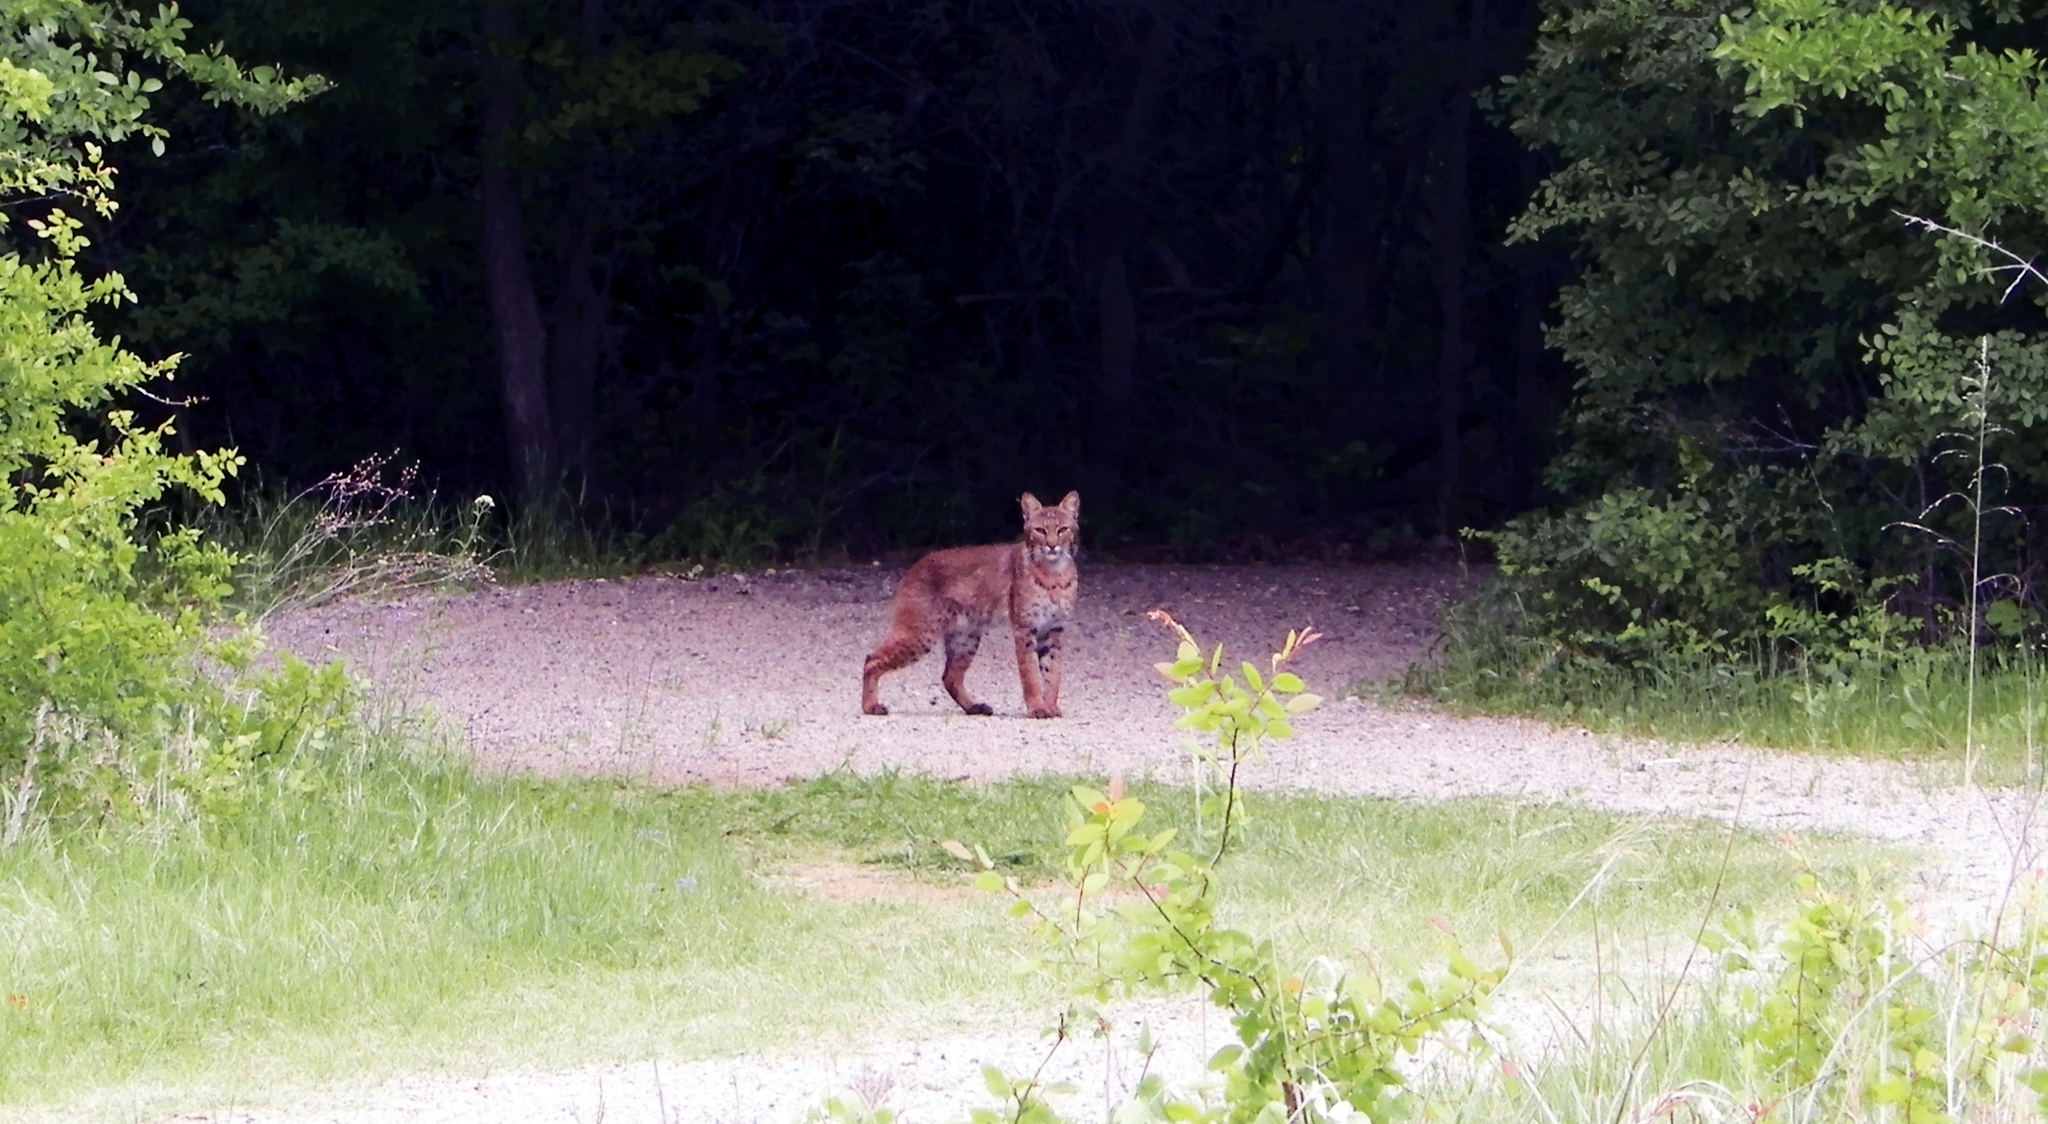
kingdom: Animalia
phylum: Chordata
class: Mammalia
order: Carnivora
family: Felidae
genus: Lynx
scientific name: Lynx rufus
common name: Bobcat
